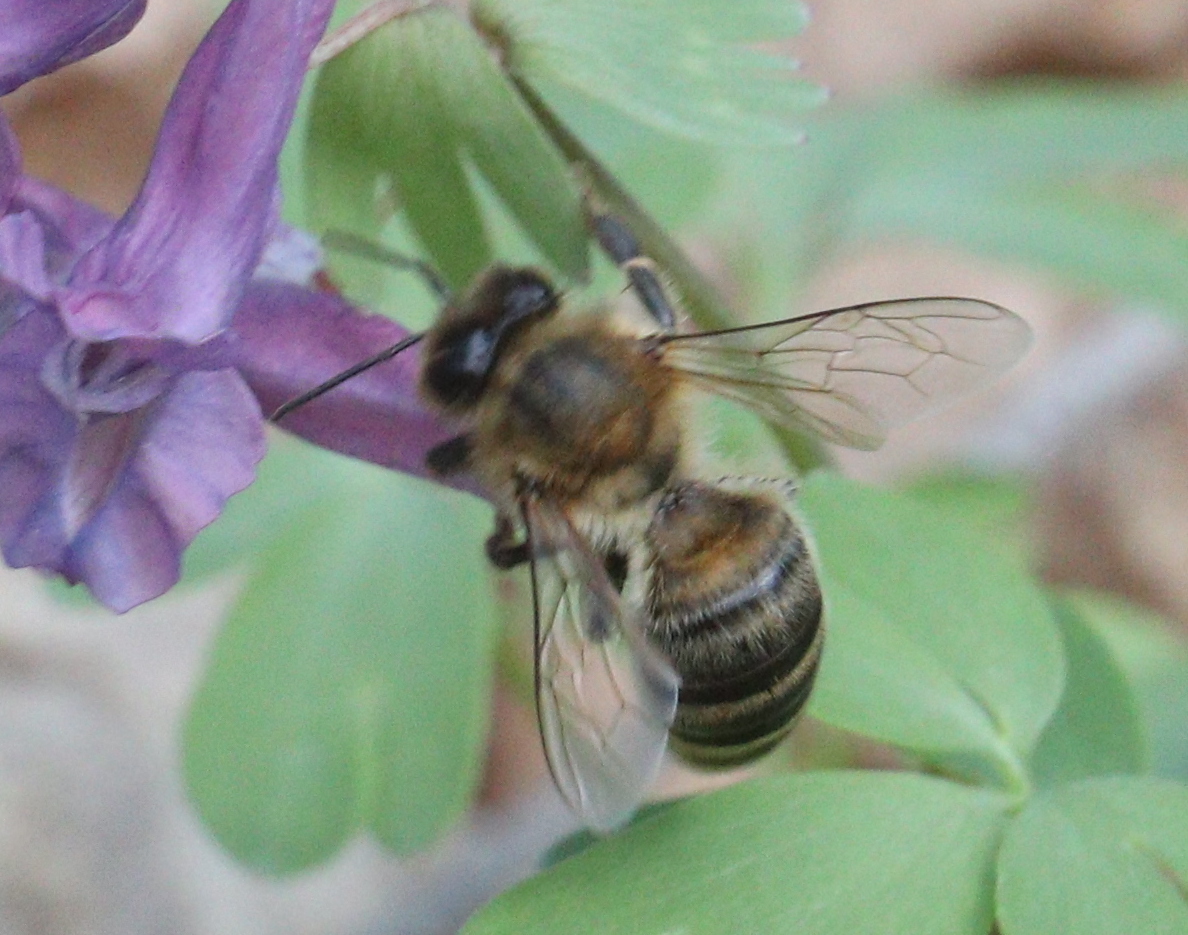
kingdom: Animalia
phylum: Arthropoda
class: Insecta
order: Hymenoptera
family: Apidae
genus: Apis
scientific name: Apis mellifera
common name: Honey bee
